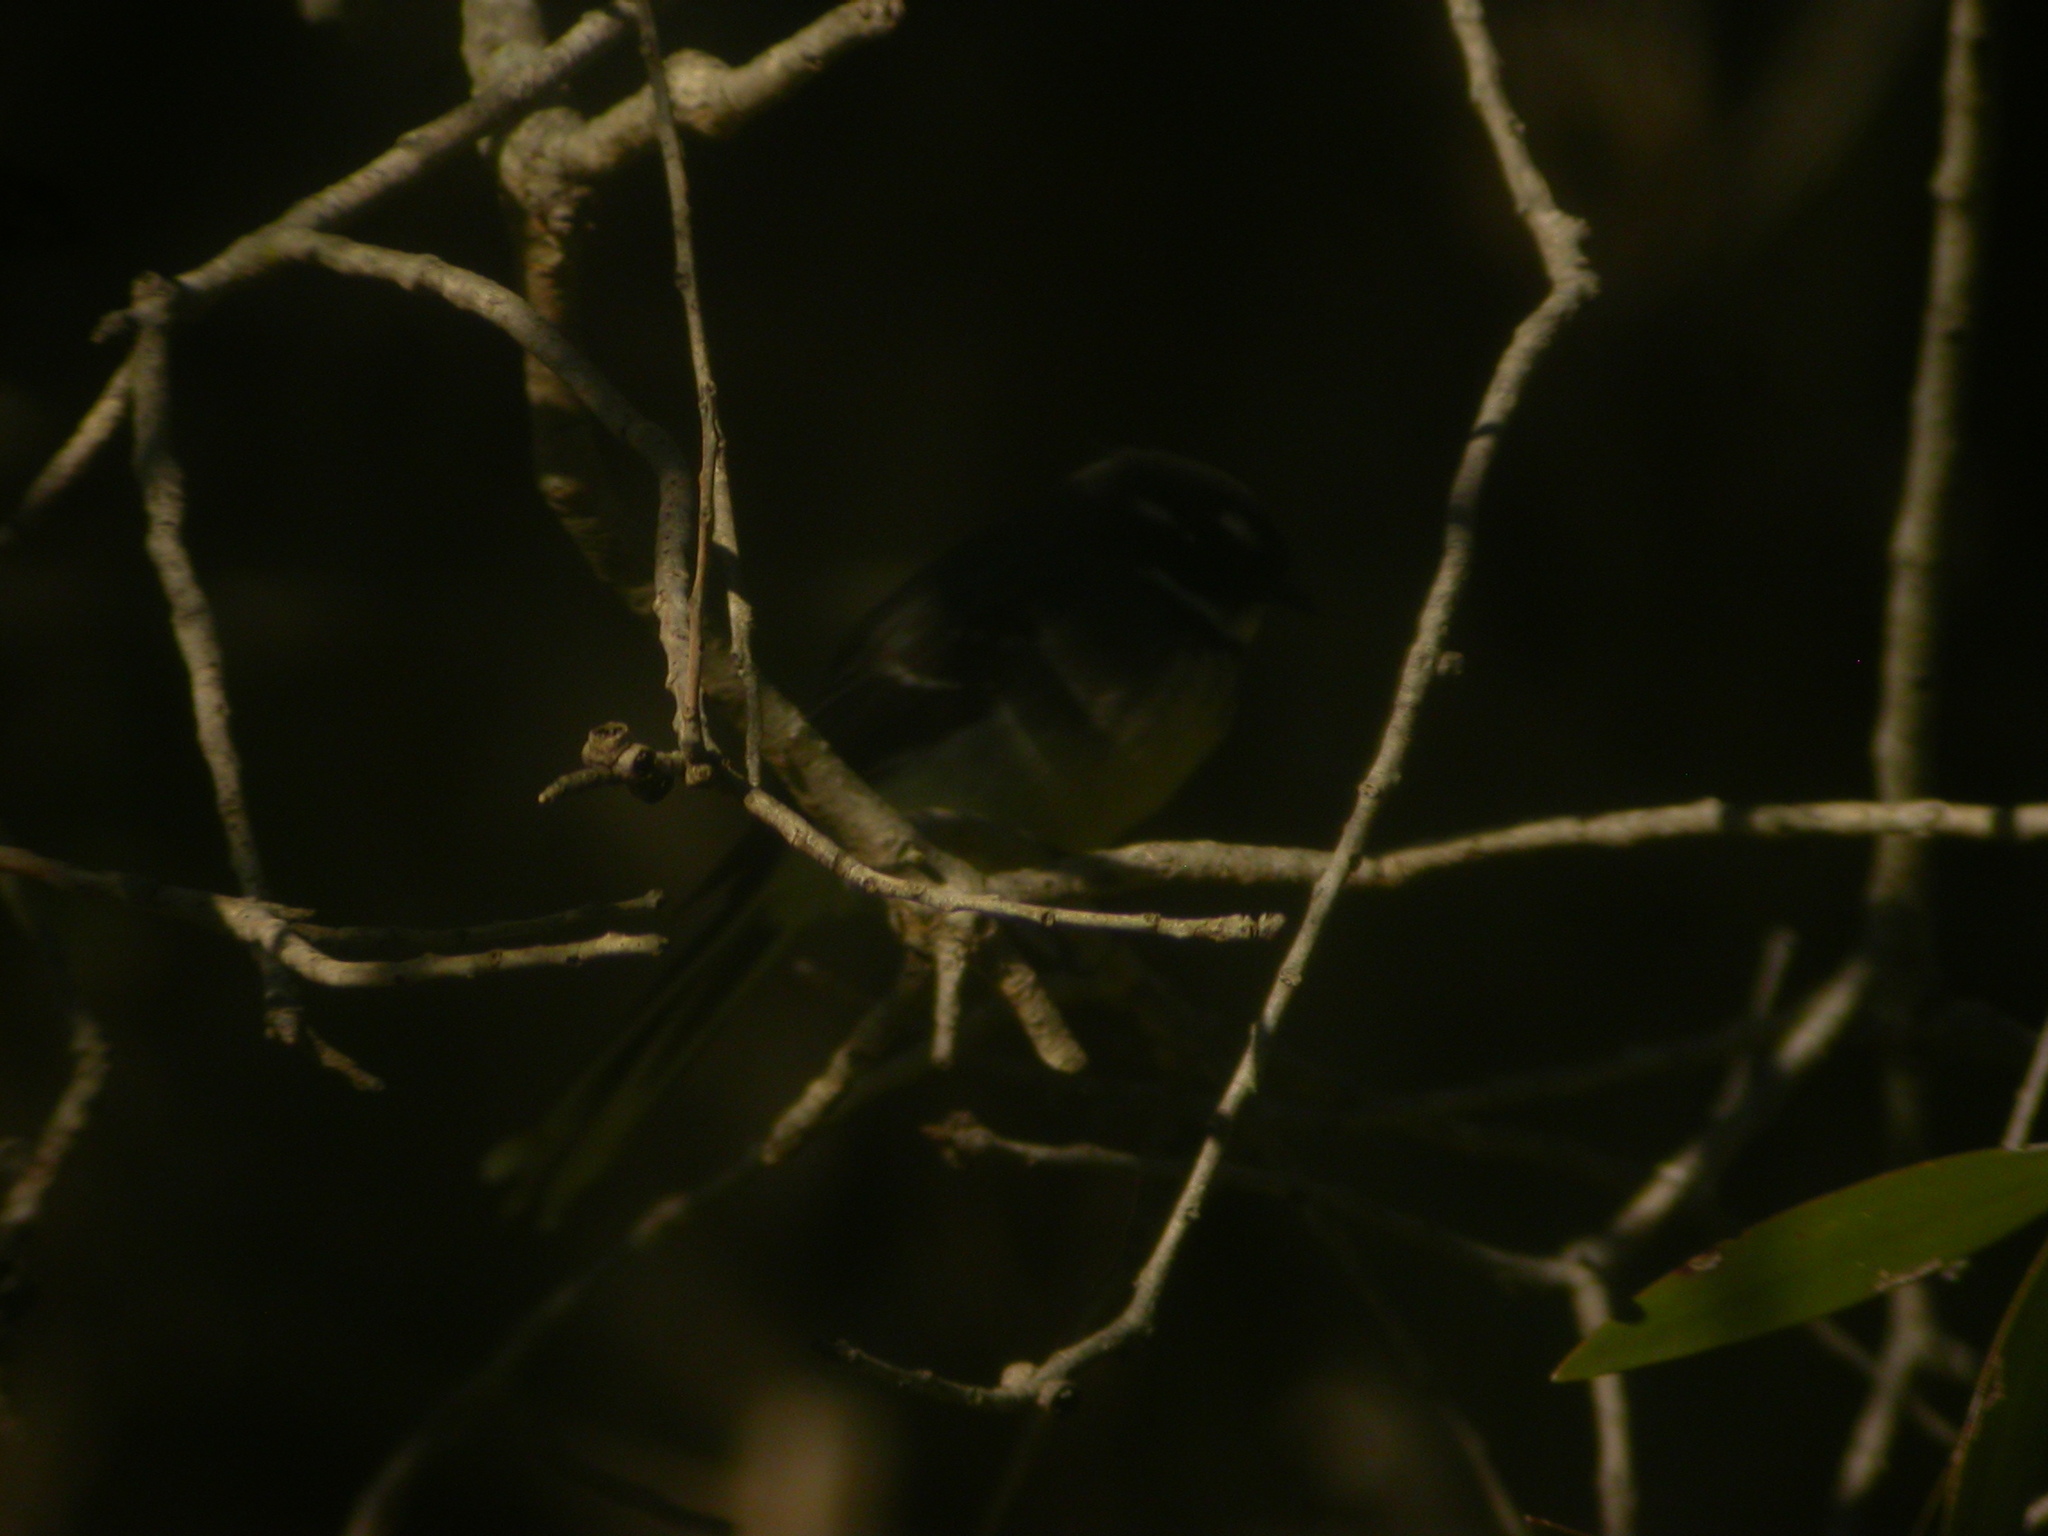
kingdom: Animalia
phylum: Chordata
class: Aves
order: Passeriformes
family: Rhipiduridae
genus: Rhipidura
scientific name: Rhipidura albiscapa
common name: Grey fantail
